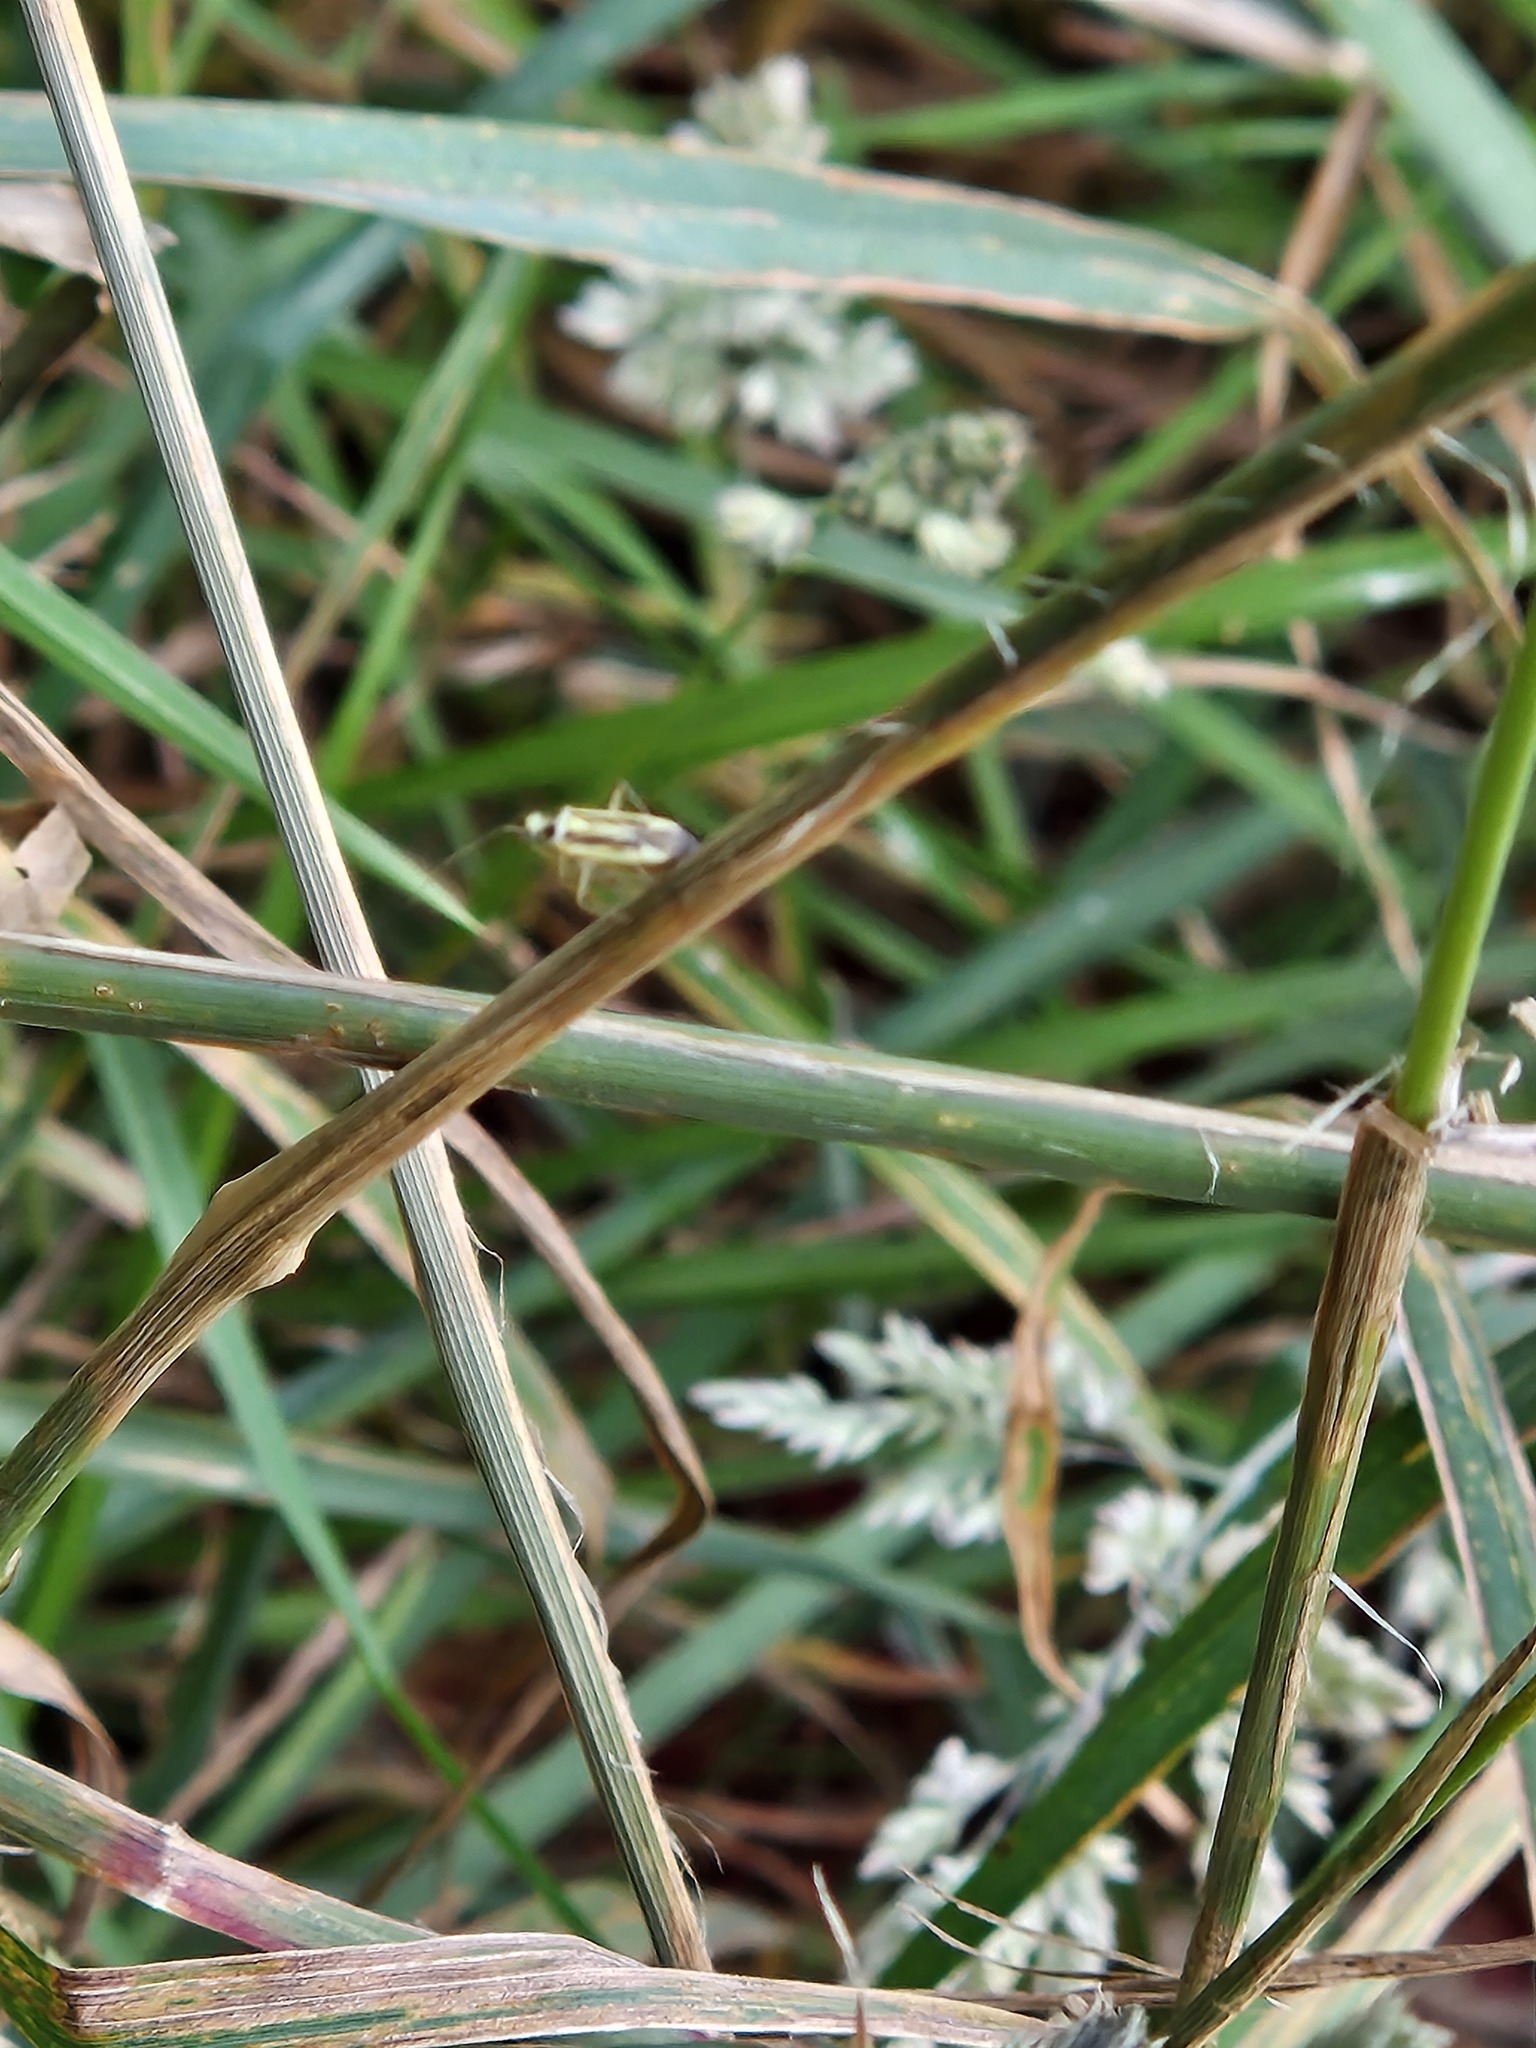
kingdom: Animalia
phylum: Arthropoda
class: Insecta
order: Hemiptera
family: Miridae
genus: Stenotus
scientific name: Stenotus binotatus
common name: Plant bug
